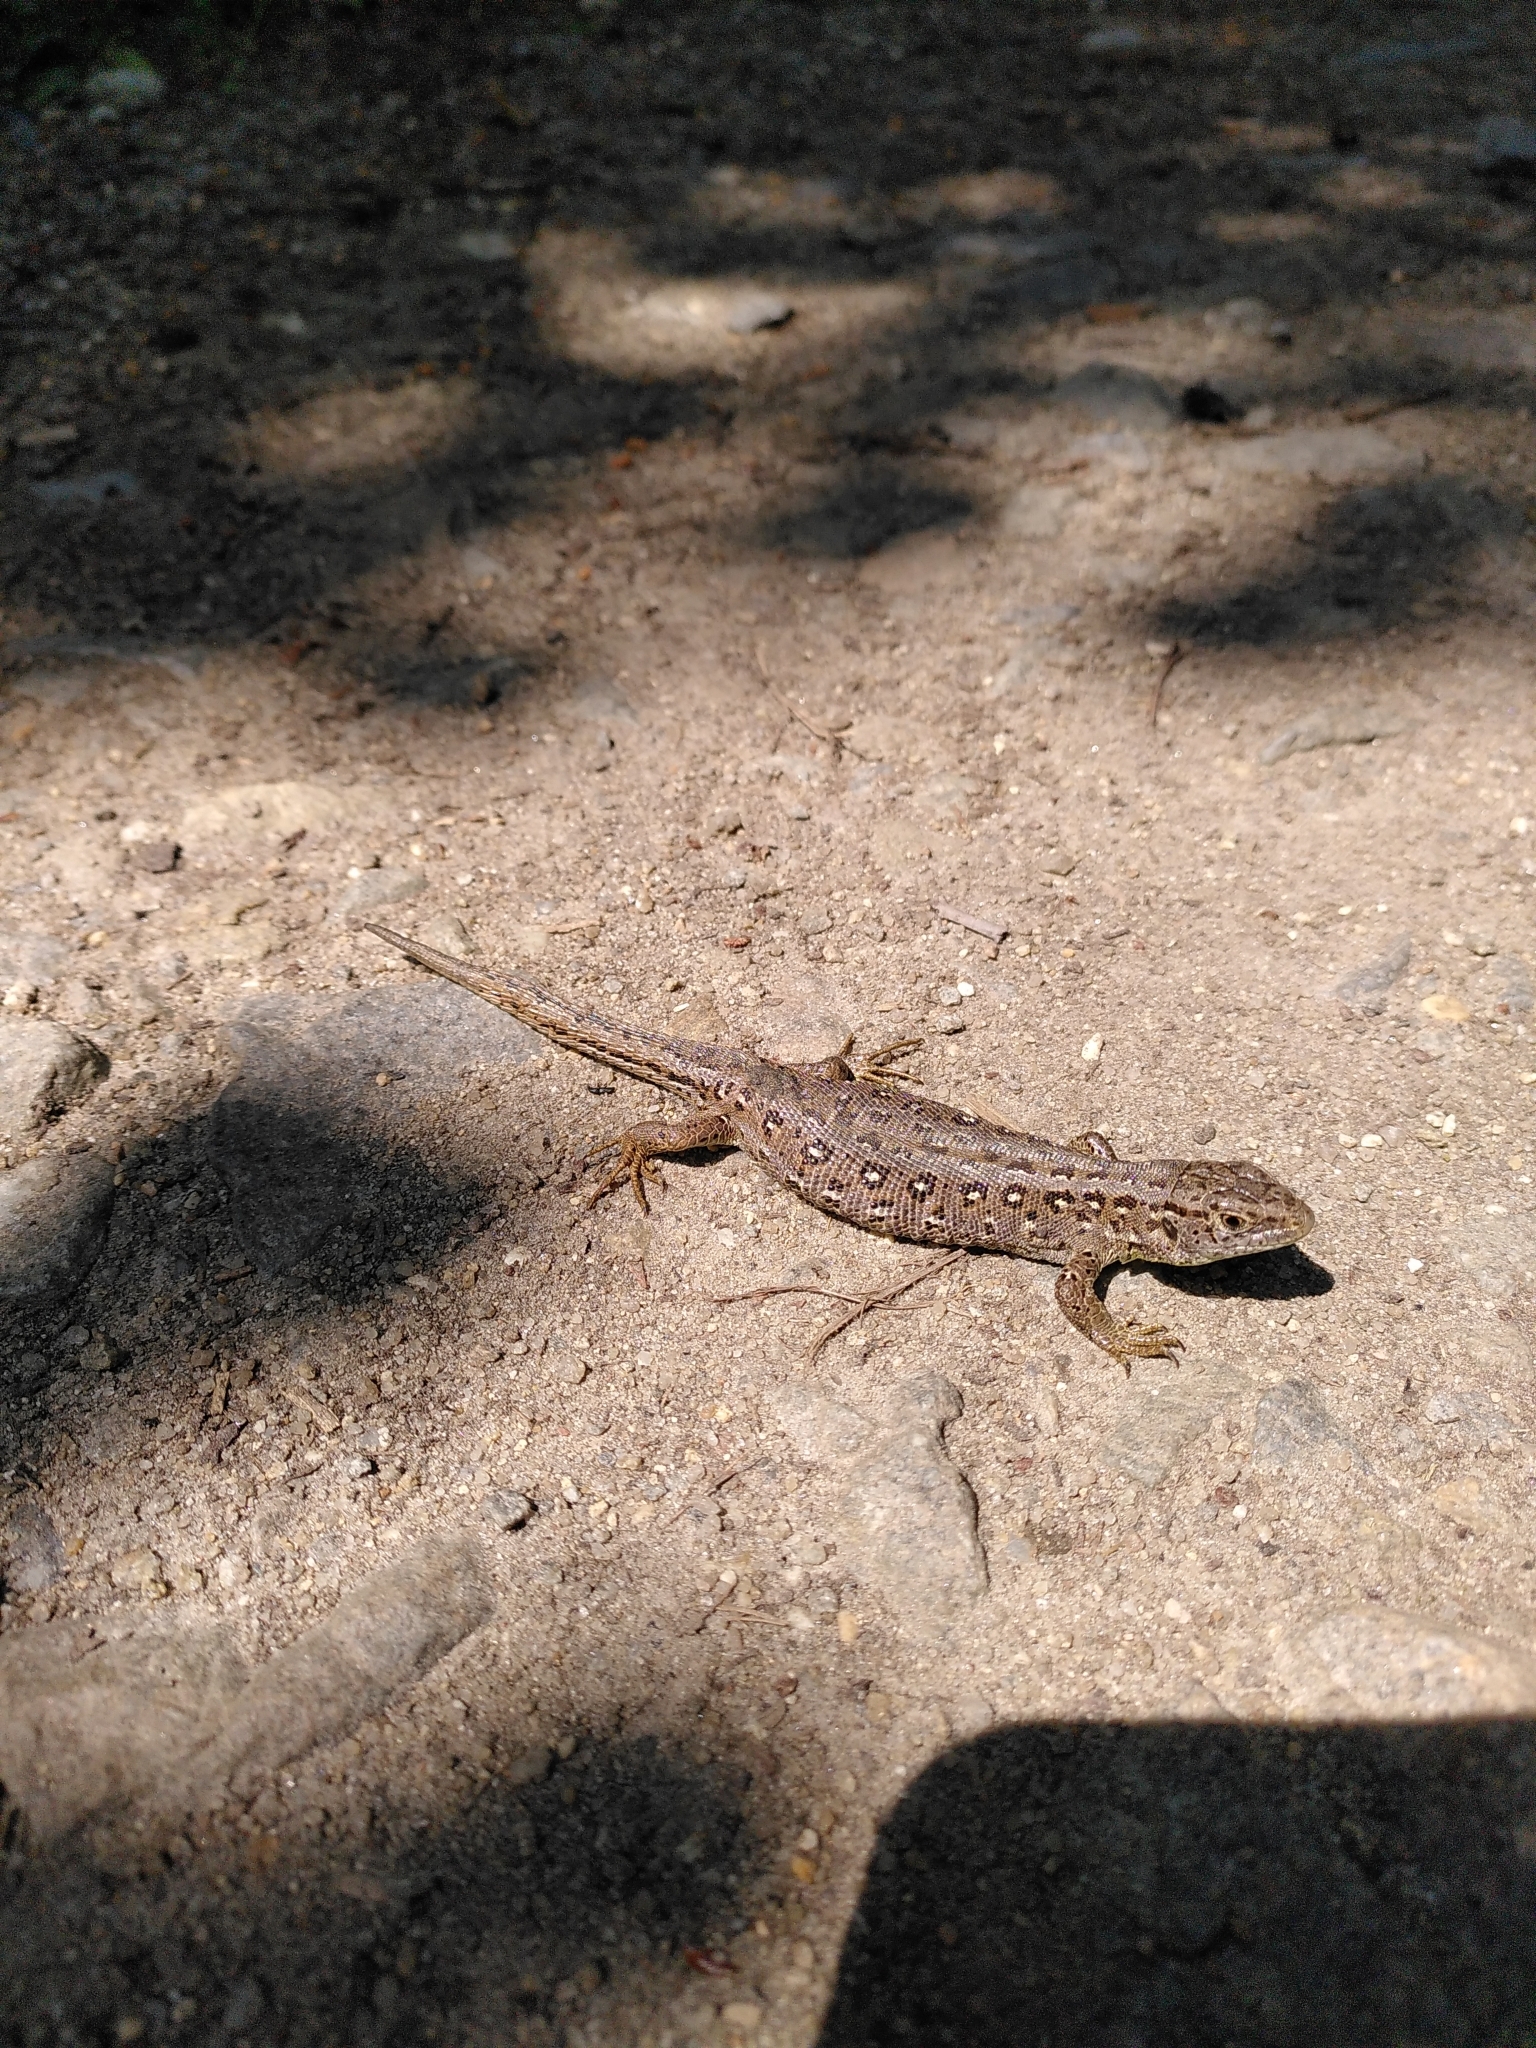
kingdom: Animalia
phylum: Chordata
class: Squamata
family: Lacertidae
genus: Lacerta
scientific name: Lacerta agilis
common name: Sand lizard
